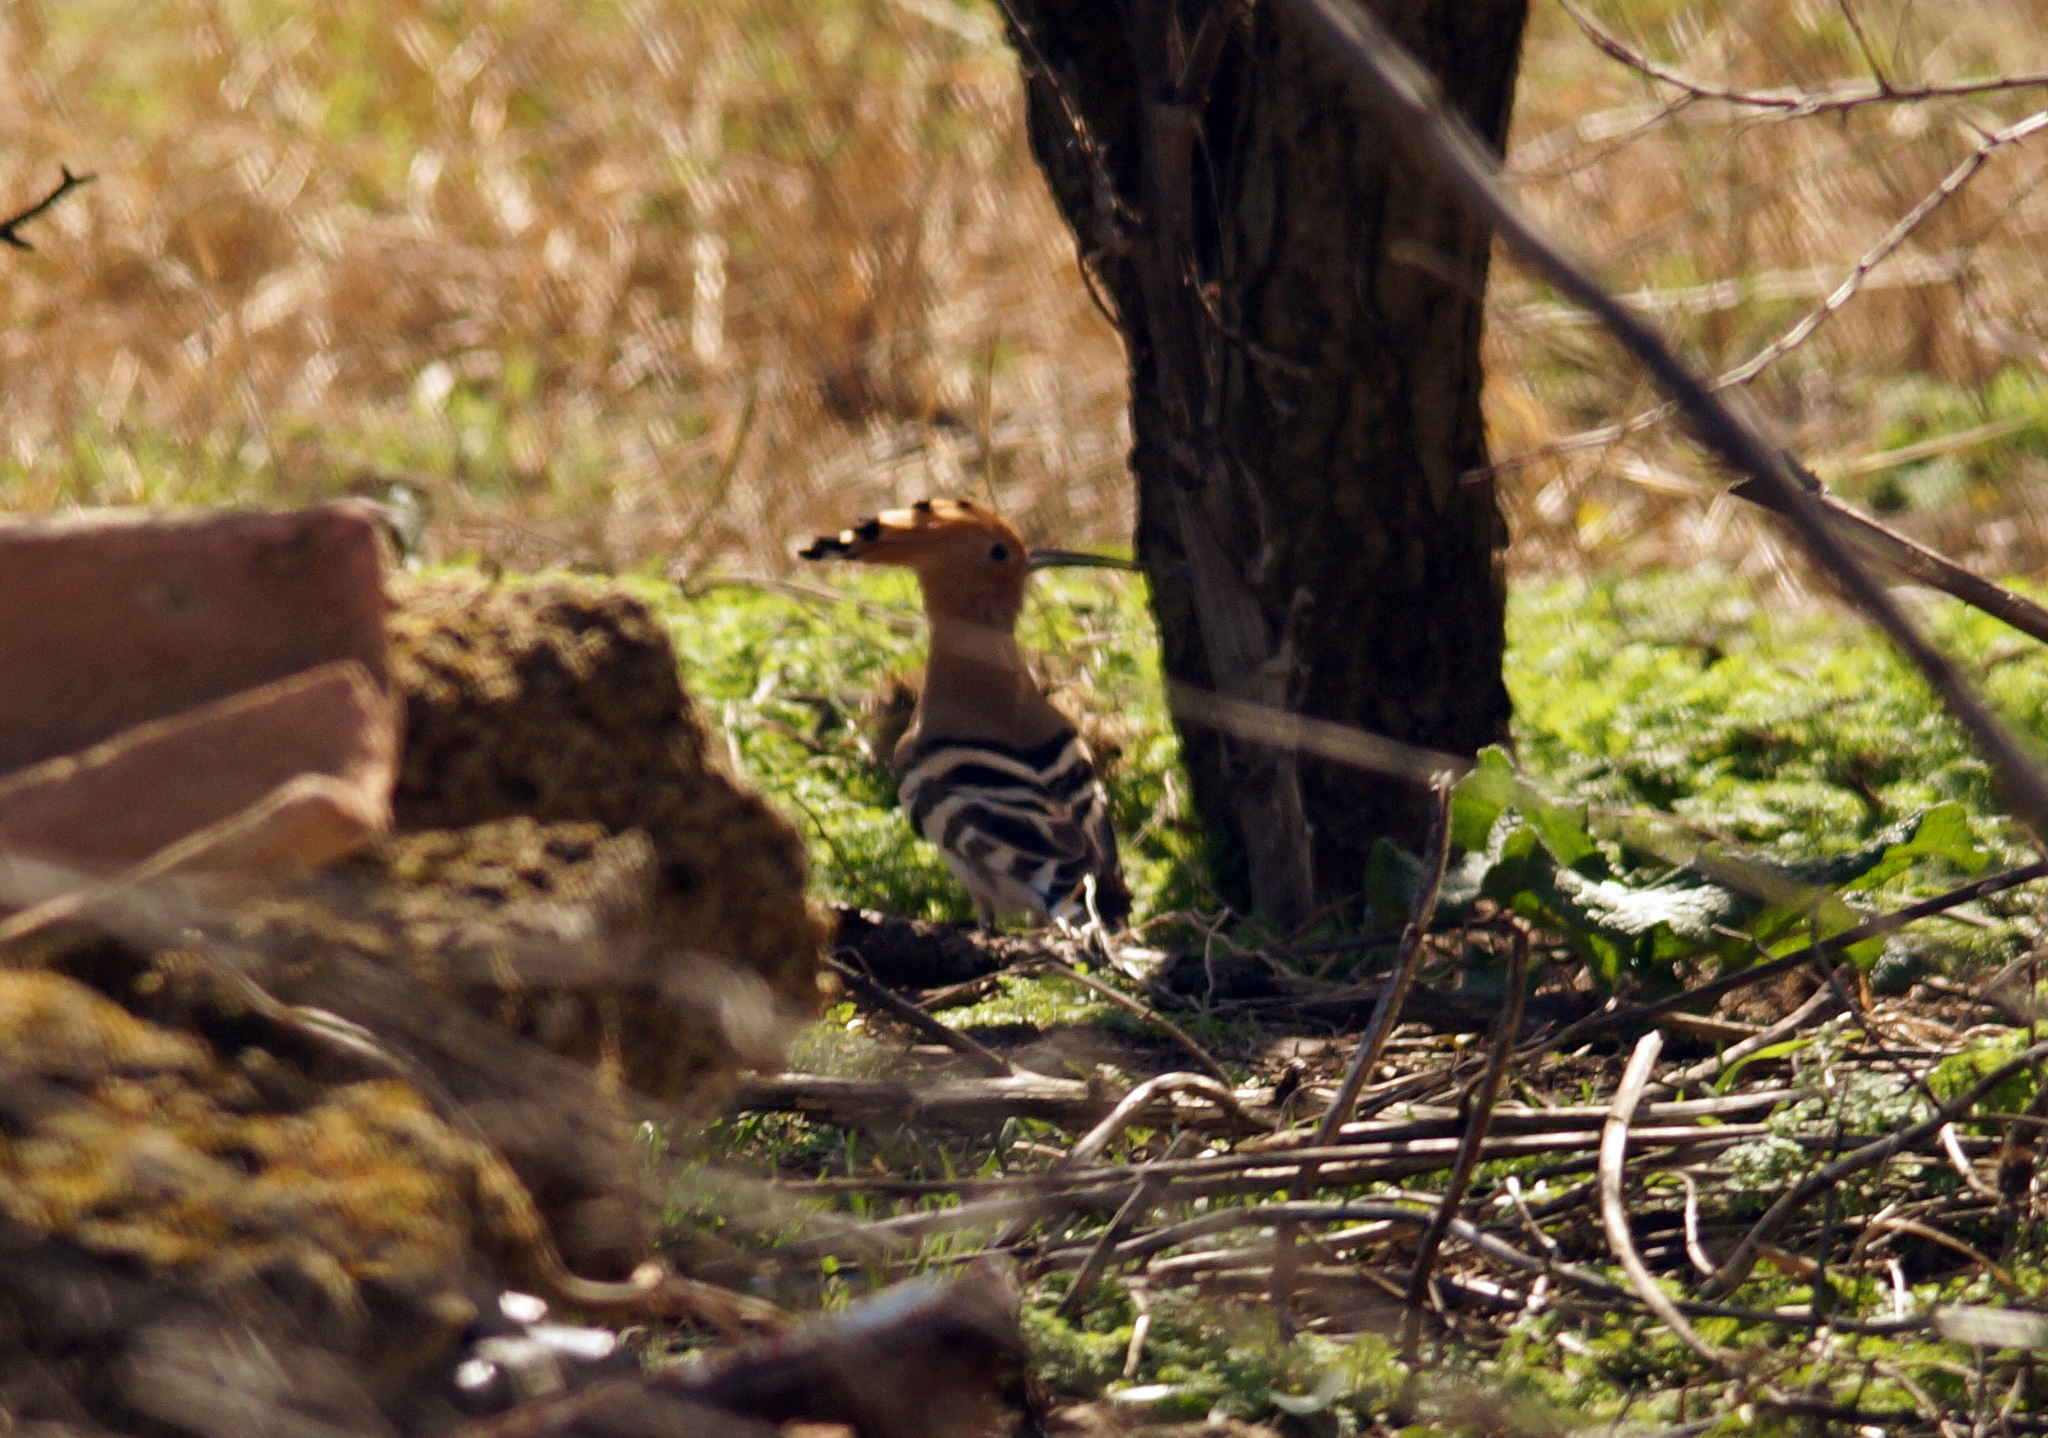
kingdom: Animalia
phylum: Chordata
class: Aves
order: Bucerotiformes
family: Upupidae
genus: Upupa
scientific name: Upupa epops
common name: Eurasian hoopoe
